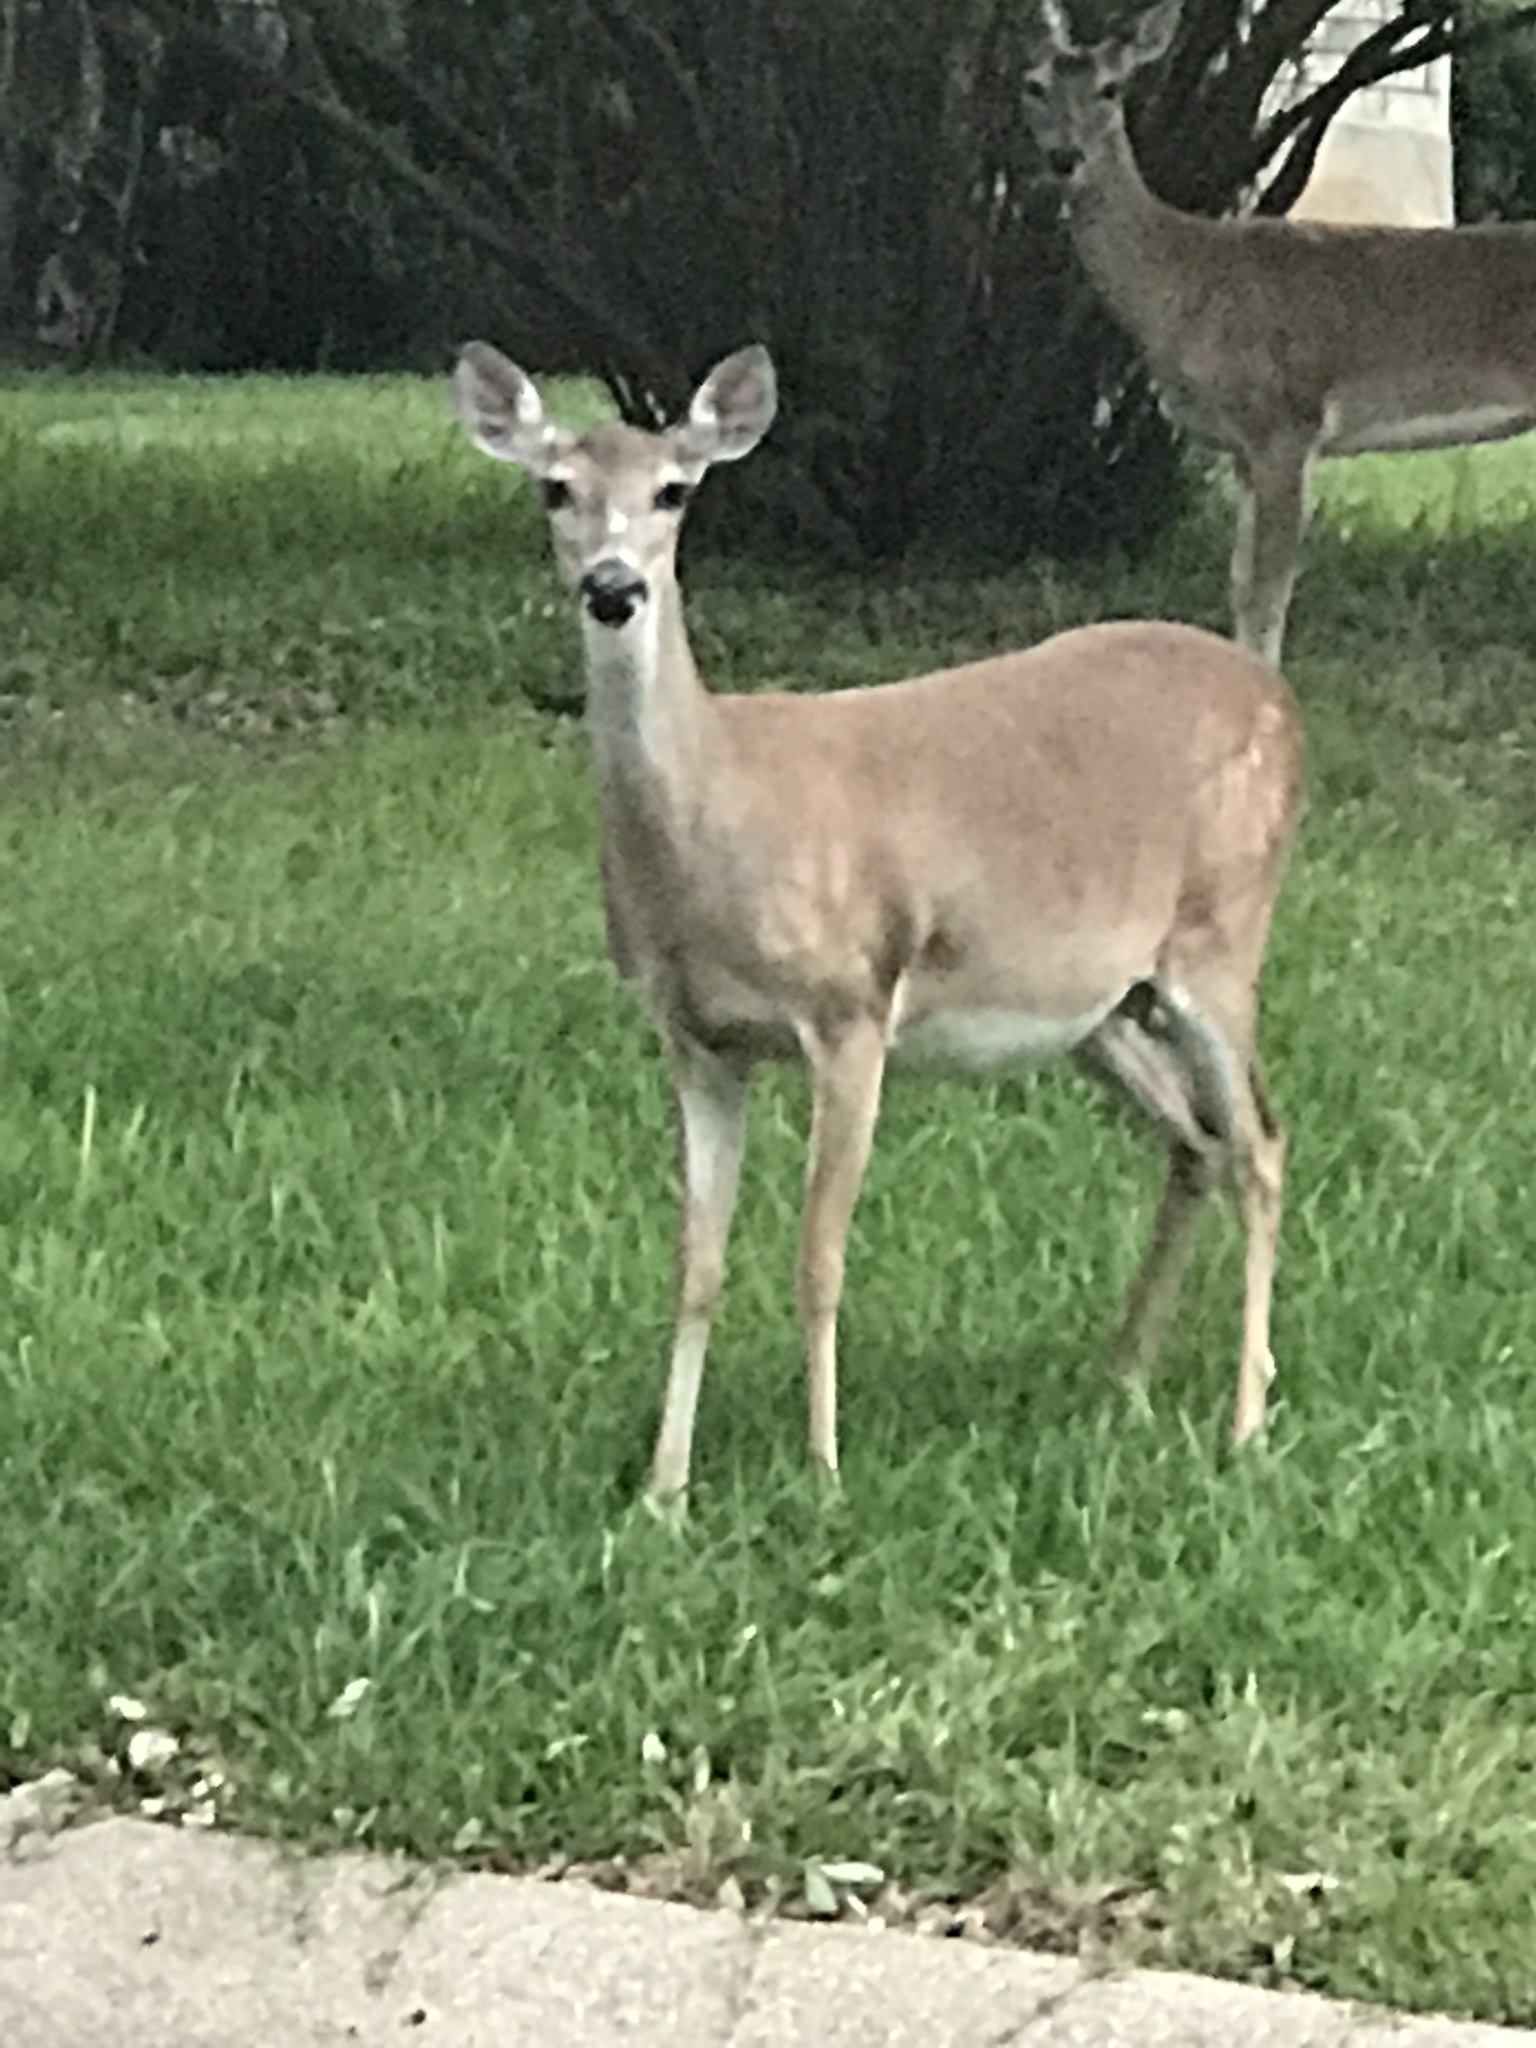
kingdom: Animalia
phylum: Chordata
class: Mammalia
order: Artiodactyla
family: Cervidae
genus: Odocoileus
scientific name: Odocoileus virginianus
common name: White-tailed deer
